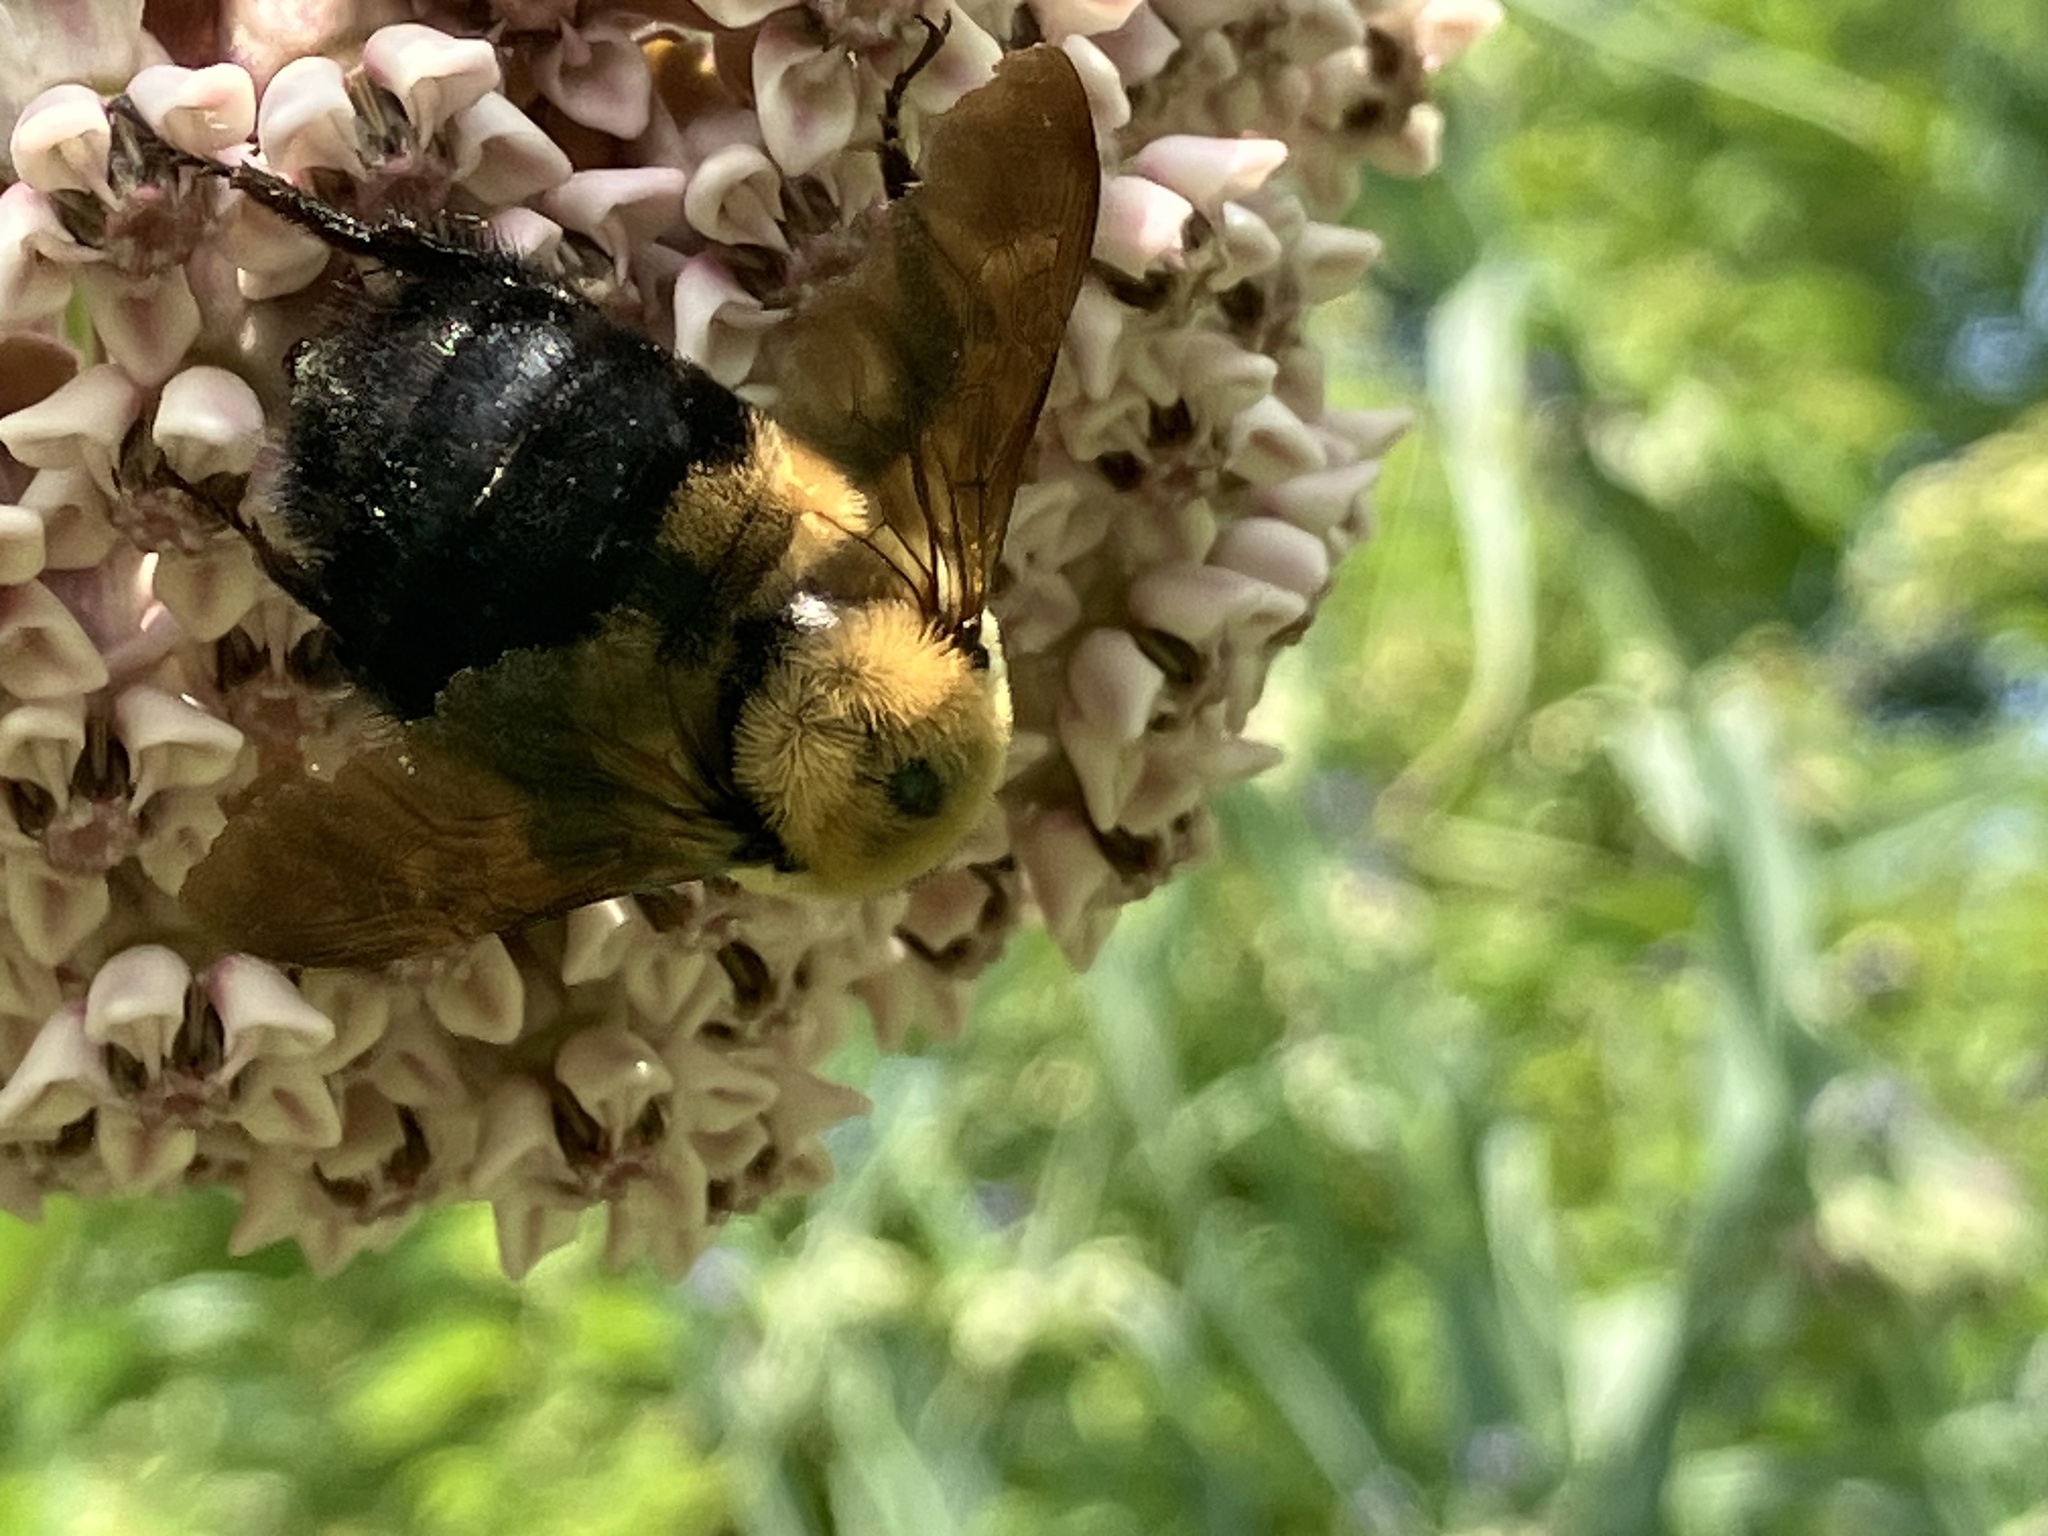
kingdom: Animalia
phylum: Arthropoda
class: Insecta
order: Hymenoptera
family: Apidae
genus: Bombus
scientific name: Bombus griseocollis
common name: Brown-belted bumble bee
